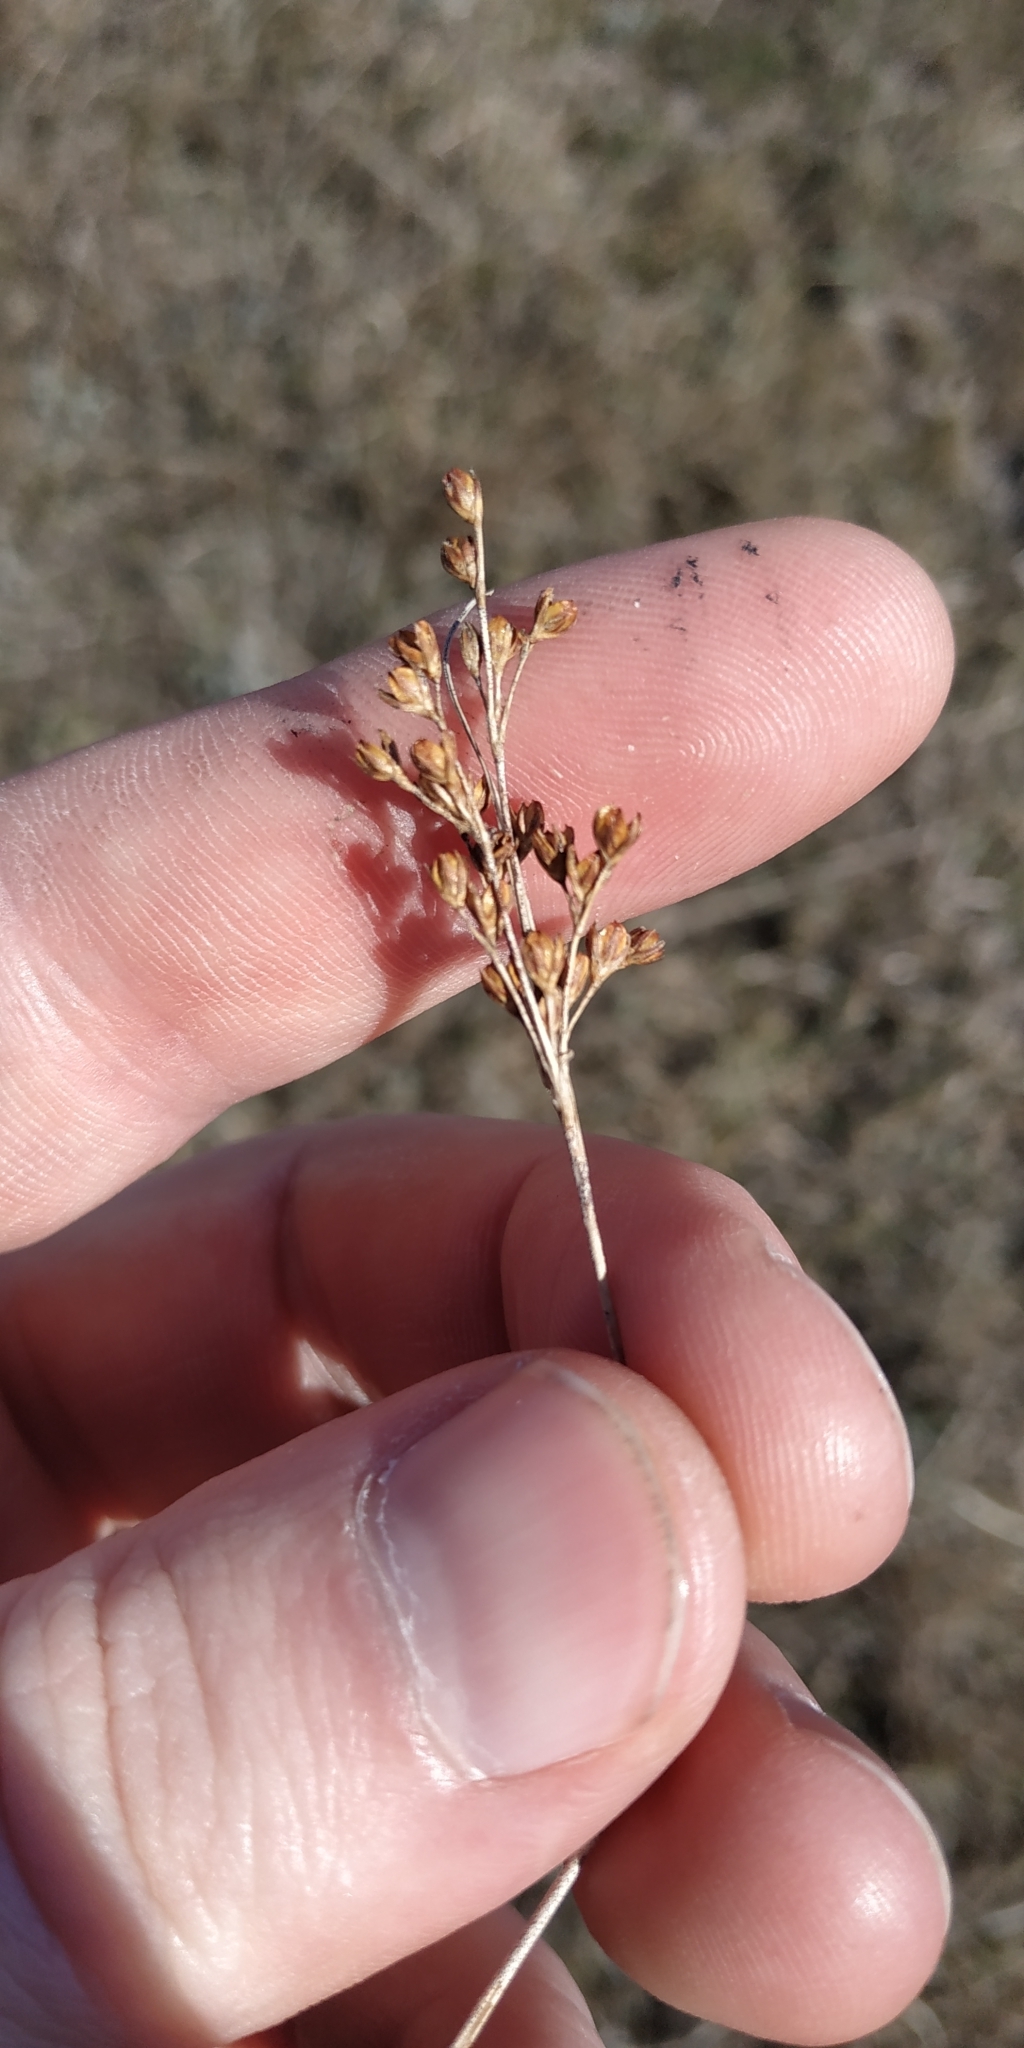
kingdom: Plantae
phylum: Tracheophyta
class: Liliopsida
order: Poales
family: Juncaceae
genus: Juncus
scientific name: Juncus gerardi
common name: Saltmarsh rush
